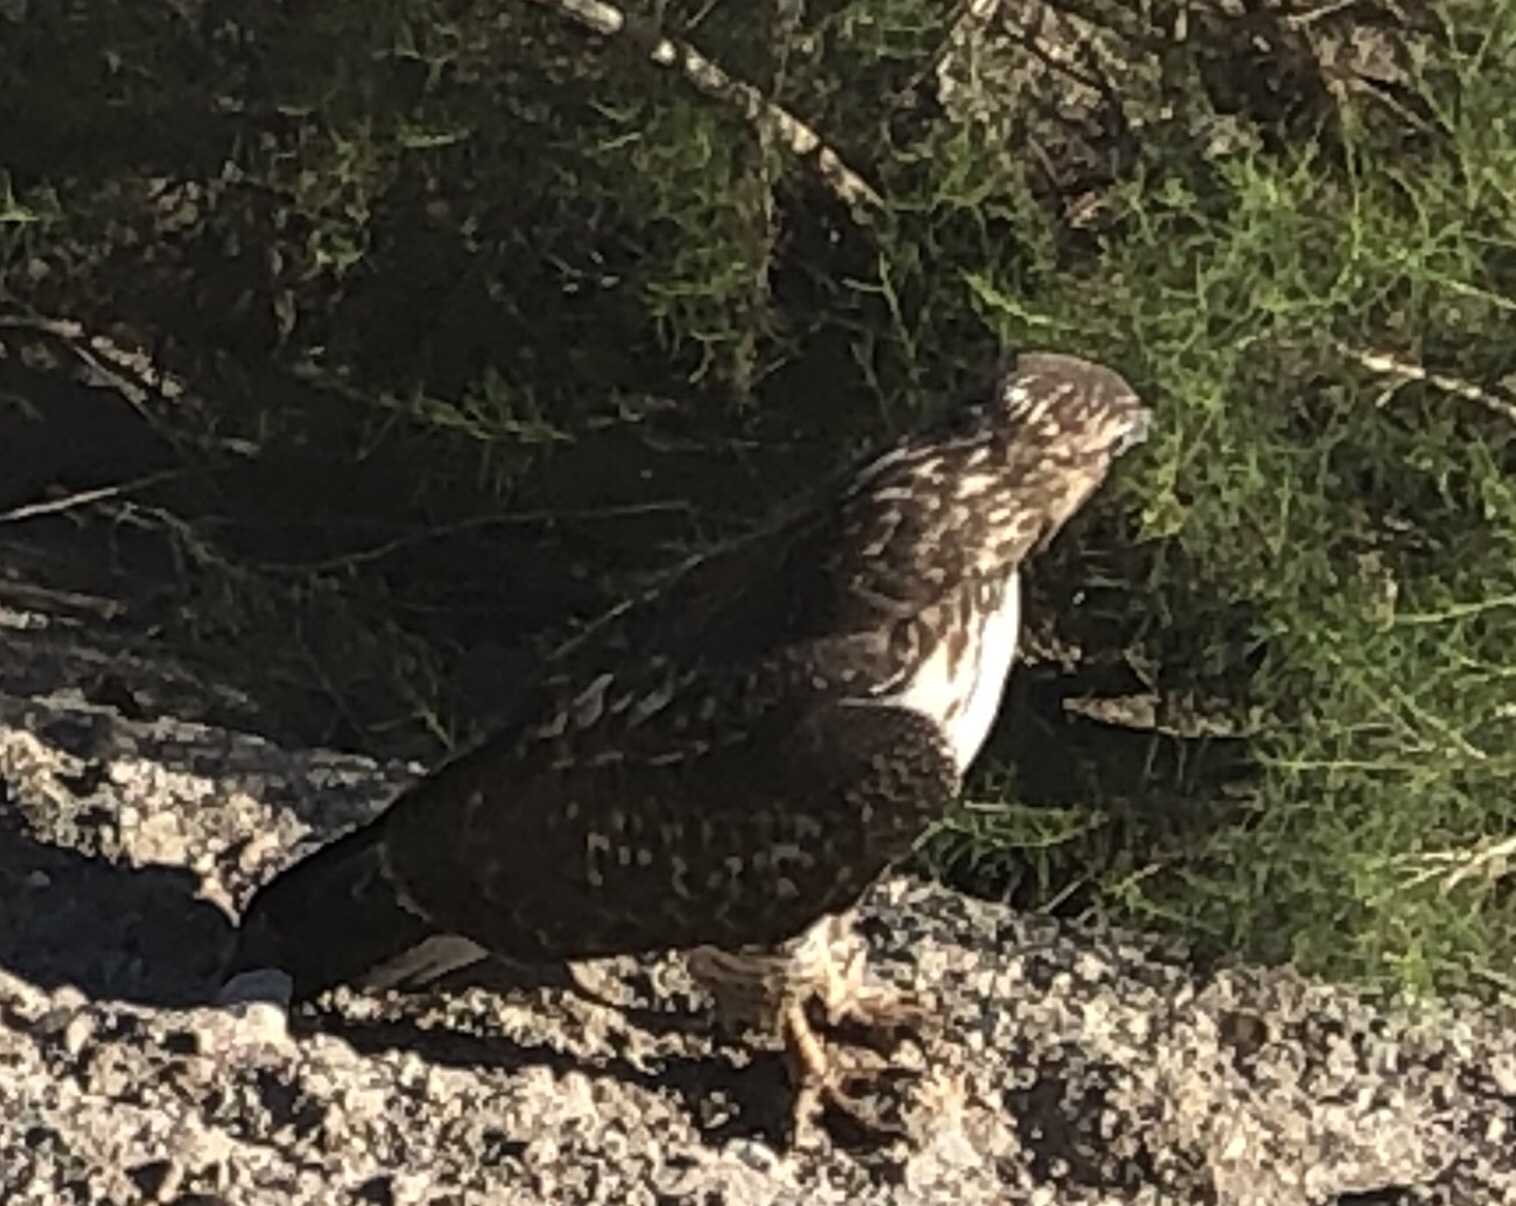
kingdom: Animalia
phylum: Chordata
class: Aves
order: Accipitriformes
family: Accipitridae
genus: Buteo
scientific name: Buteo jamaicensis
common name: Red-tailed hawk
